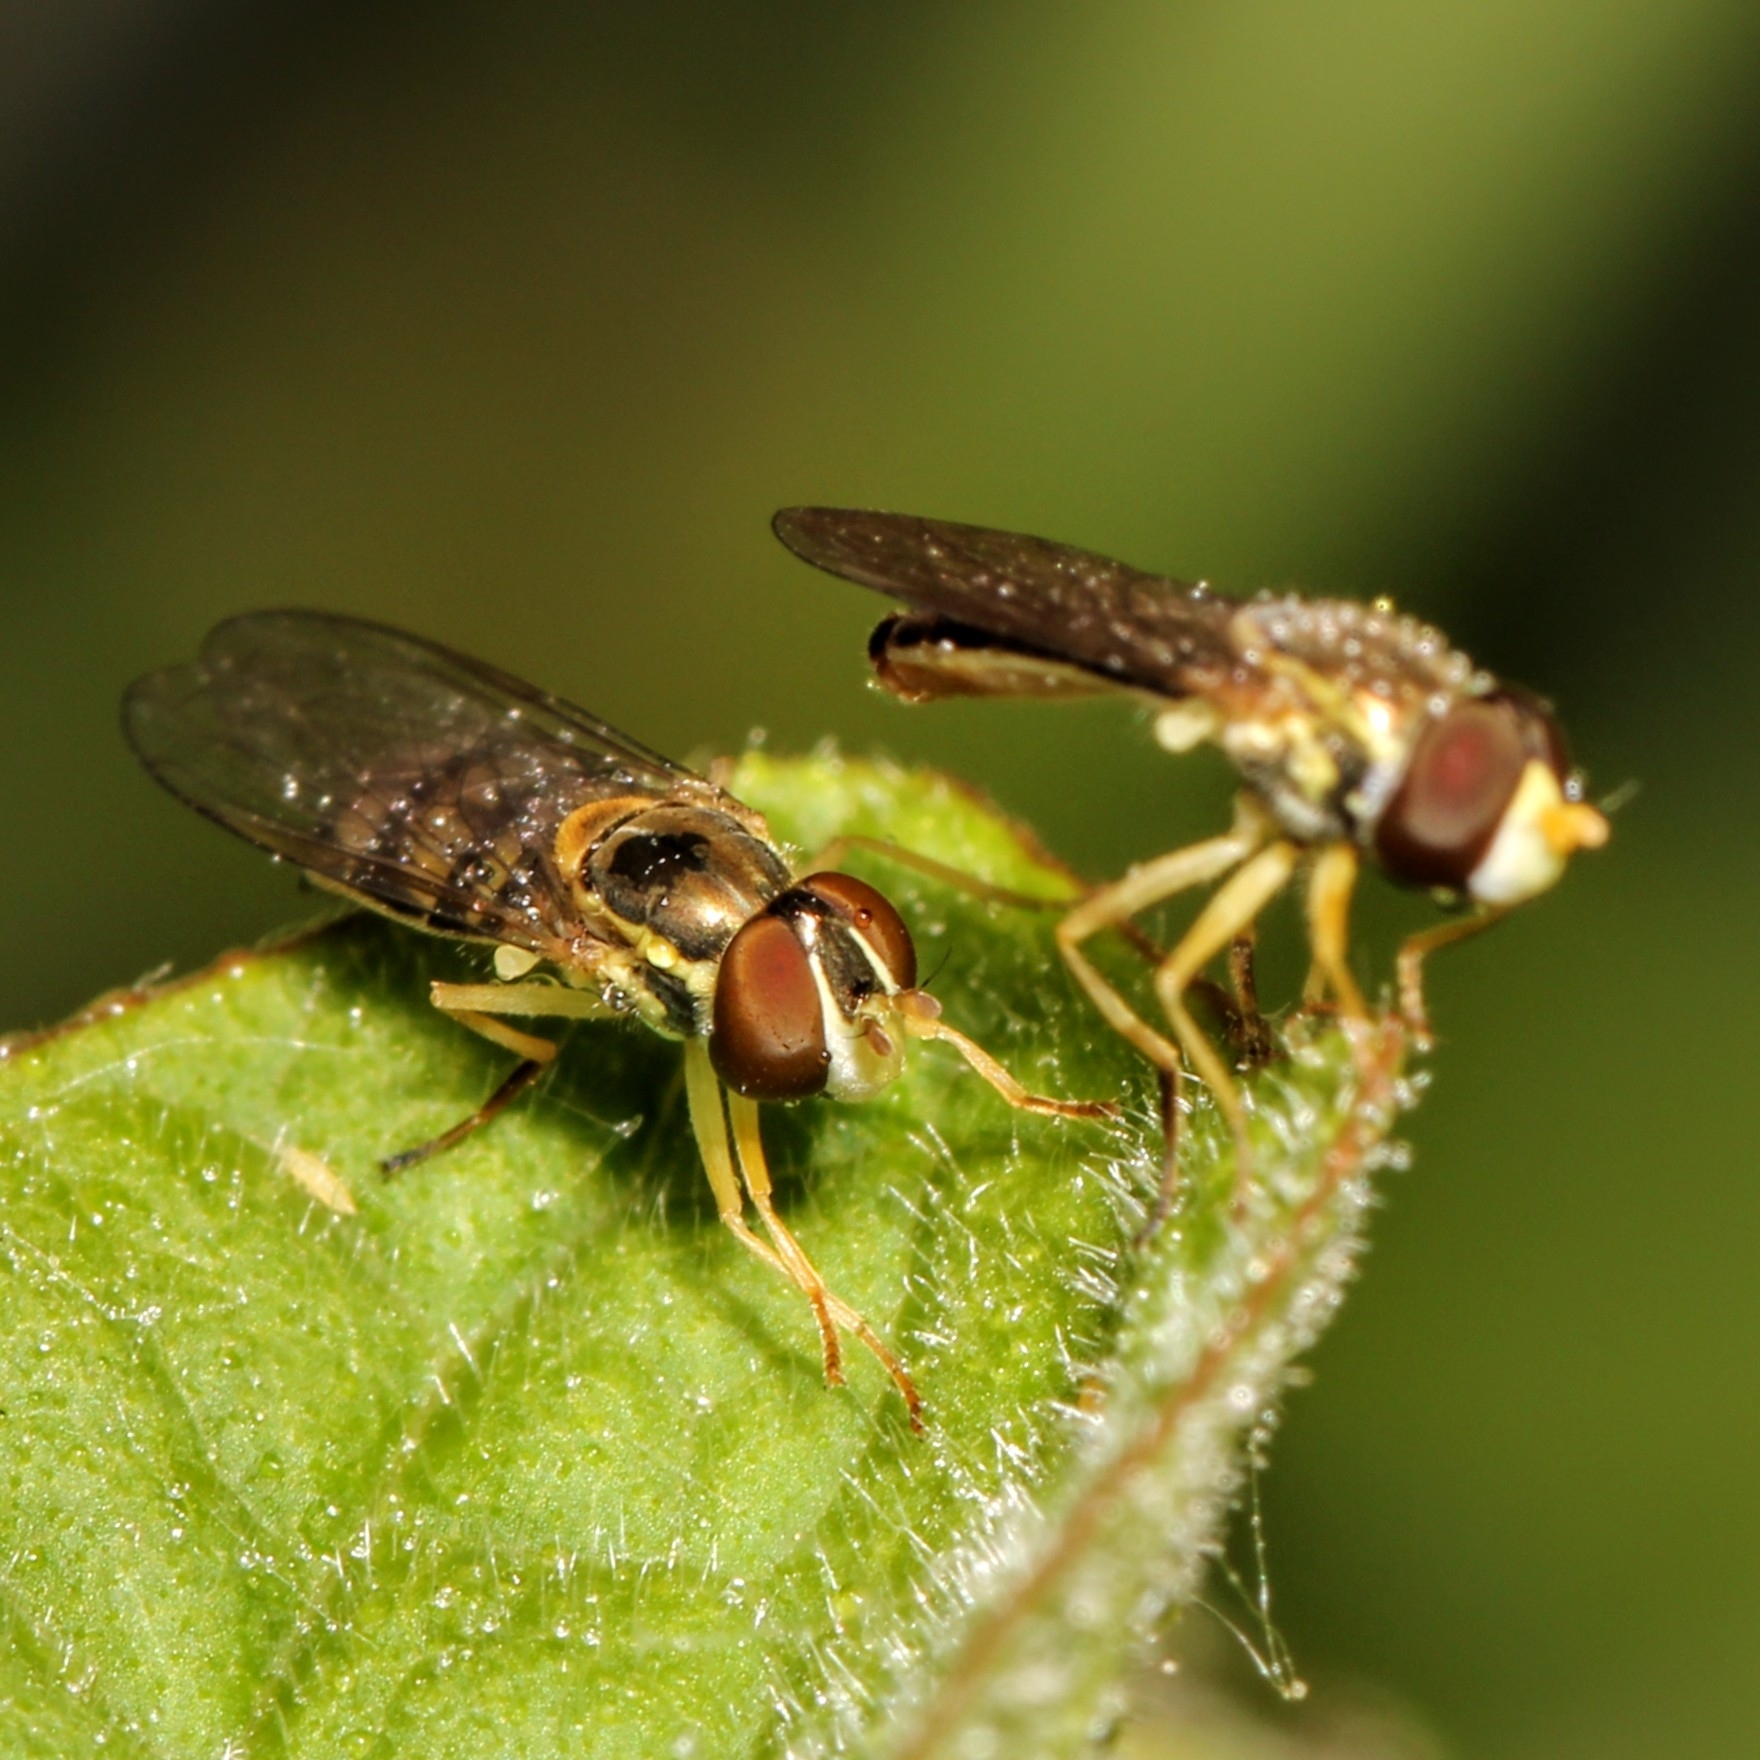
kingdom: Animalia
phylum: Arthropoda
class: Insecta
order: Diptera
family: Syrphidae
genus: Toxomerus
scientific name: Toxomerus marginatus
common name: Syrphid fly
